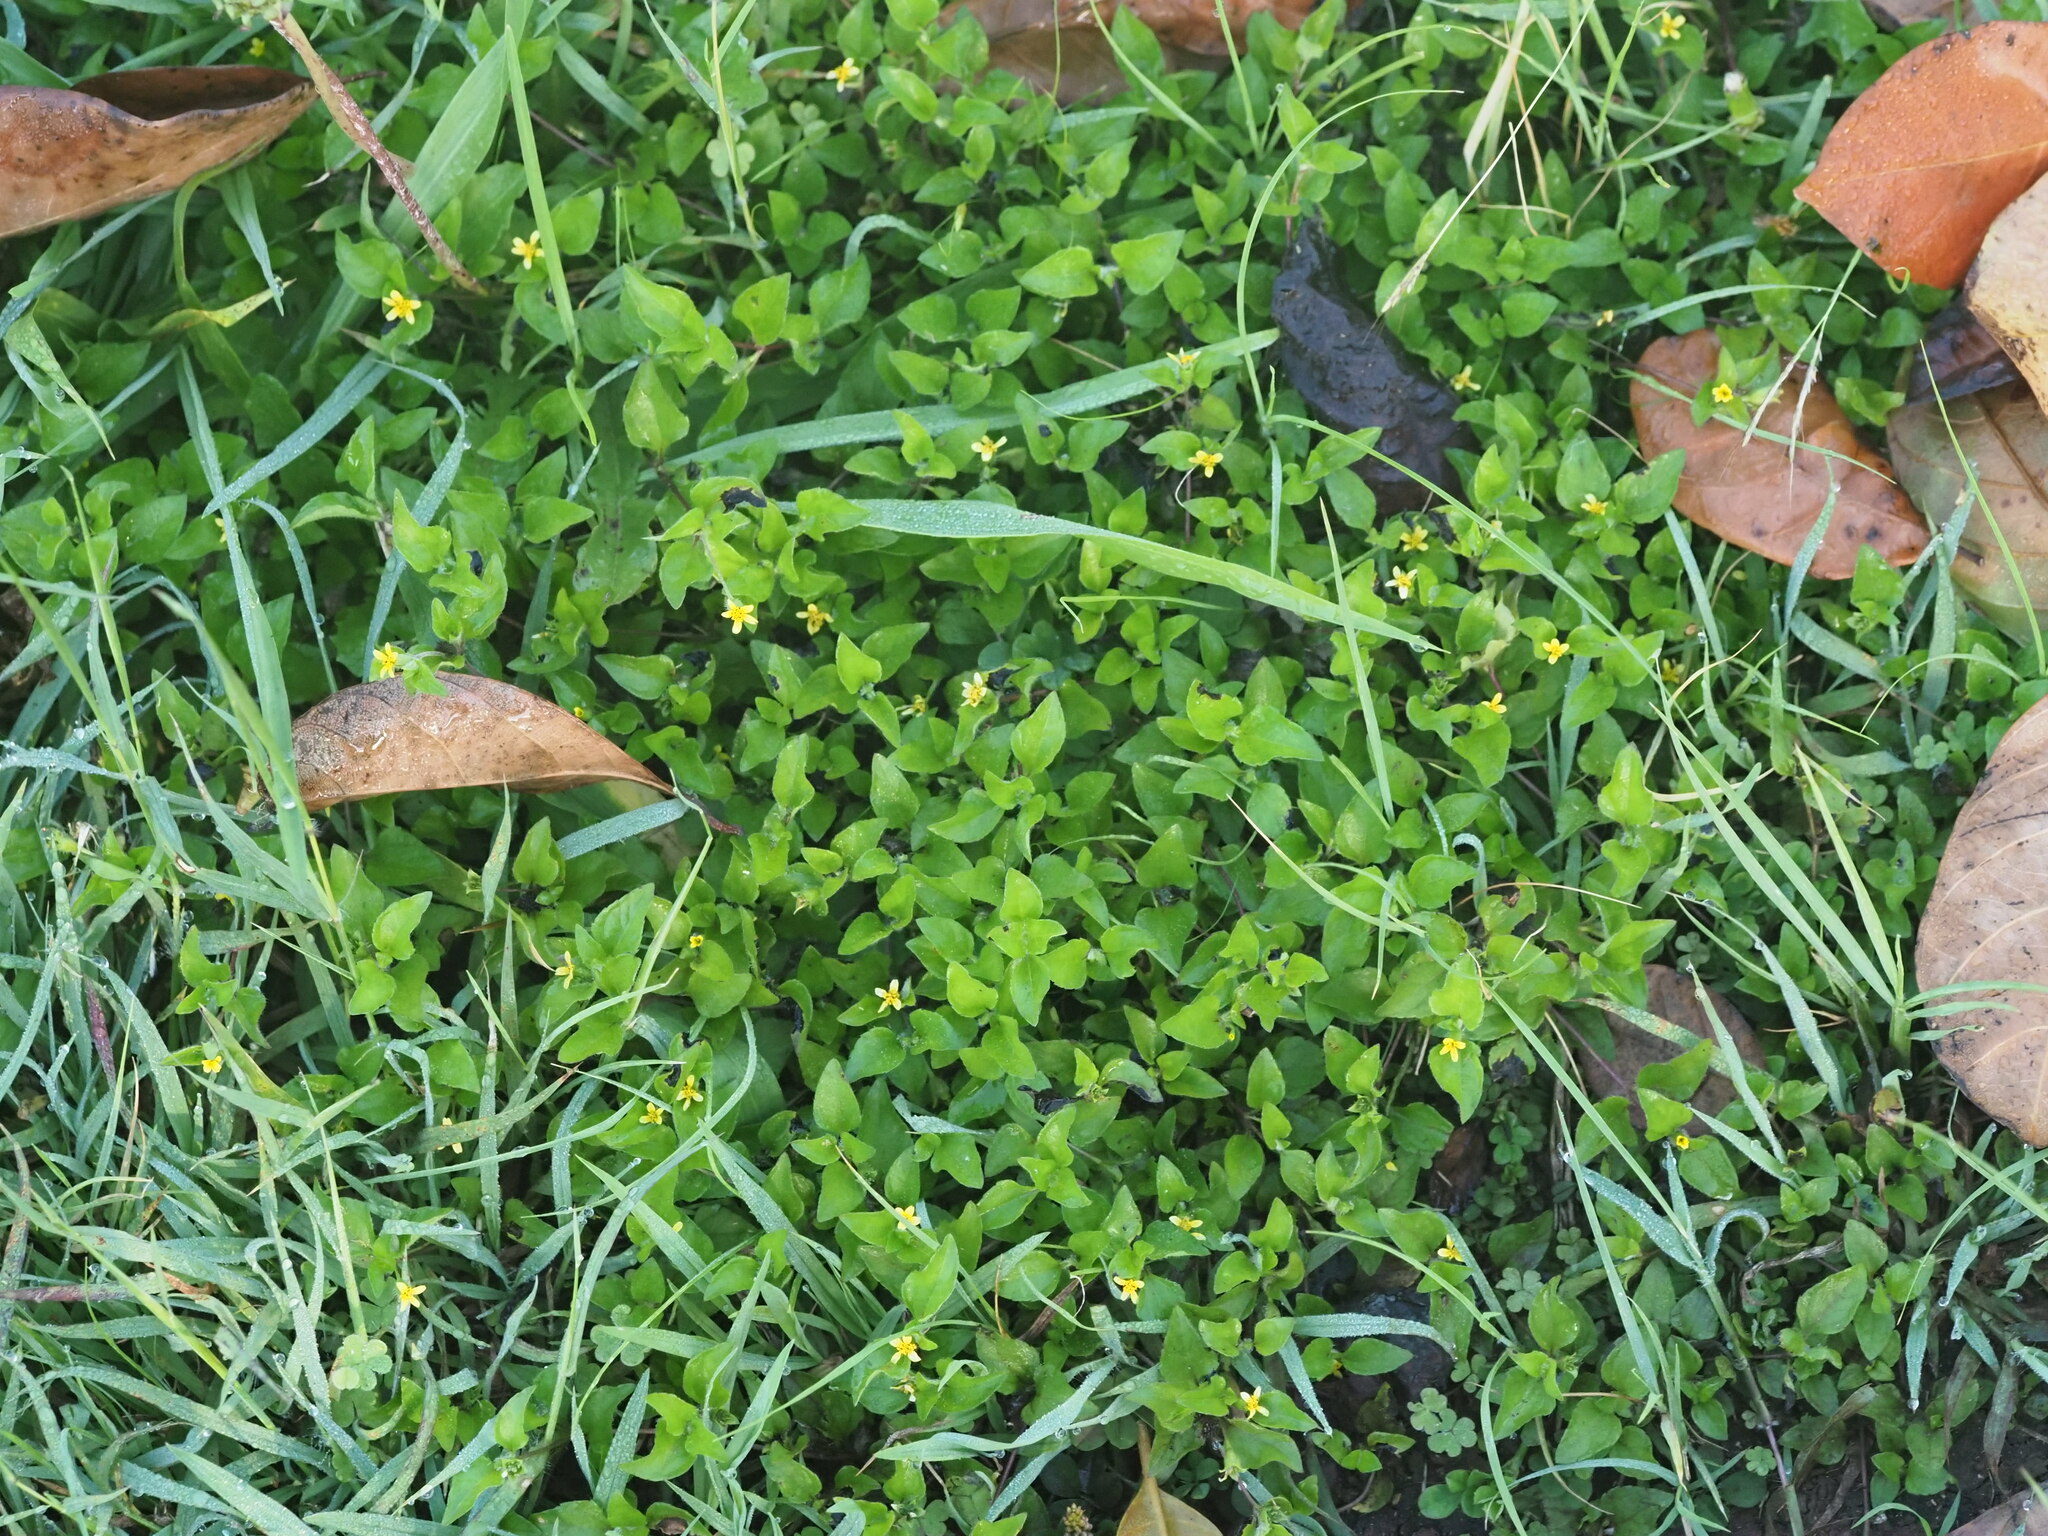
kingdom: Plantae
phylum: Tracheophyta
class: Magnoliopsida
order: Asterales
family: Asteraceae
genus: Calyptocarpus
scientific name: Calyptocarpus vialis
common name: Straggler daisy
